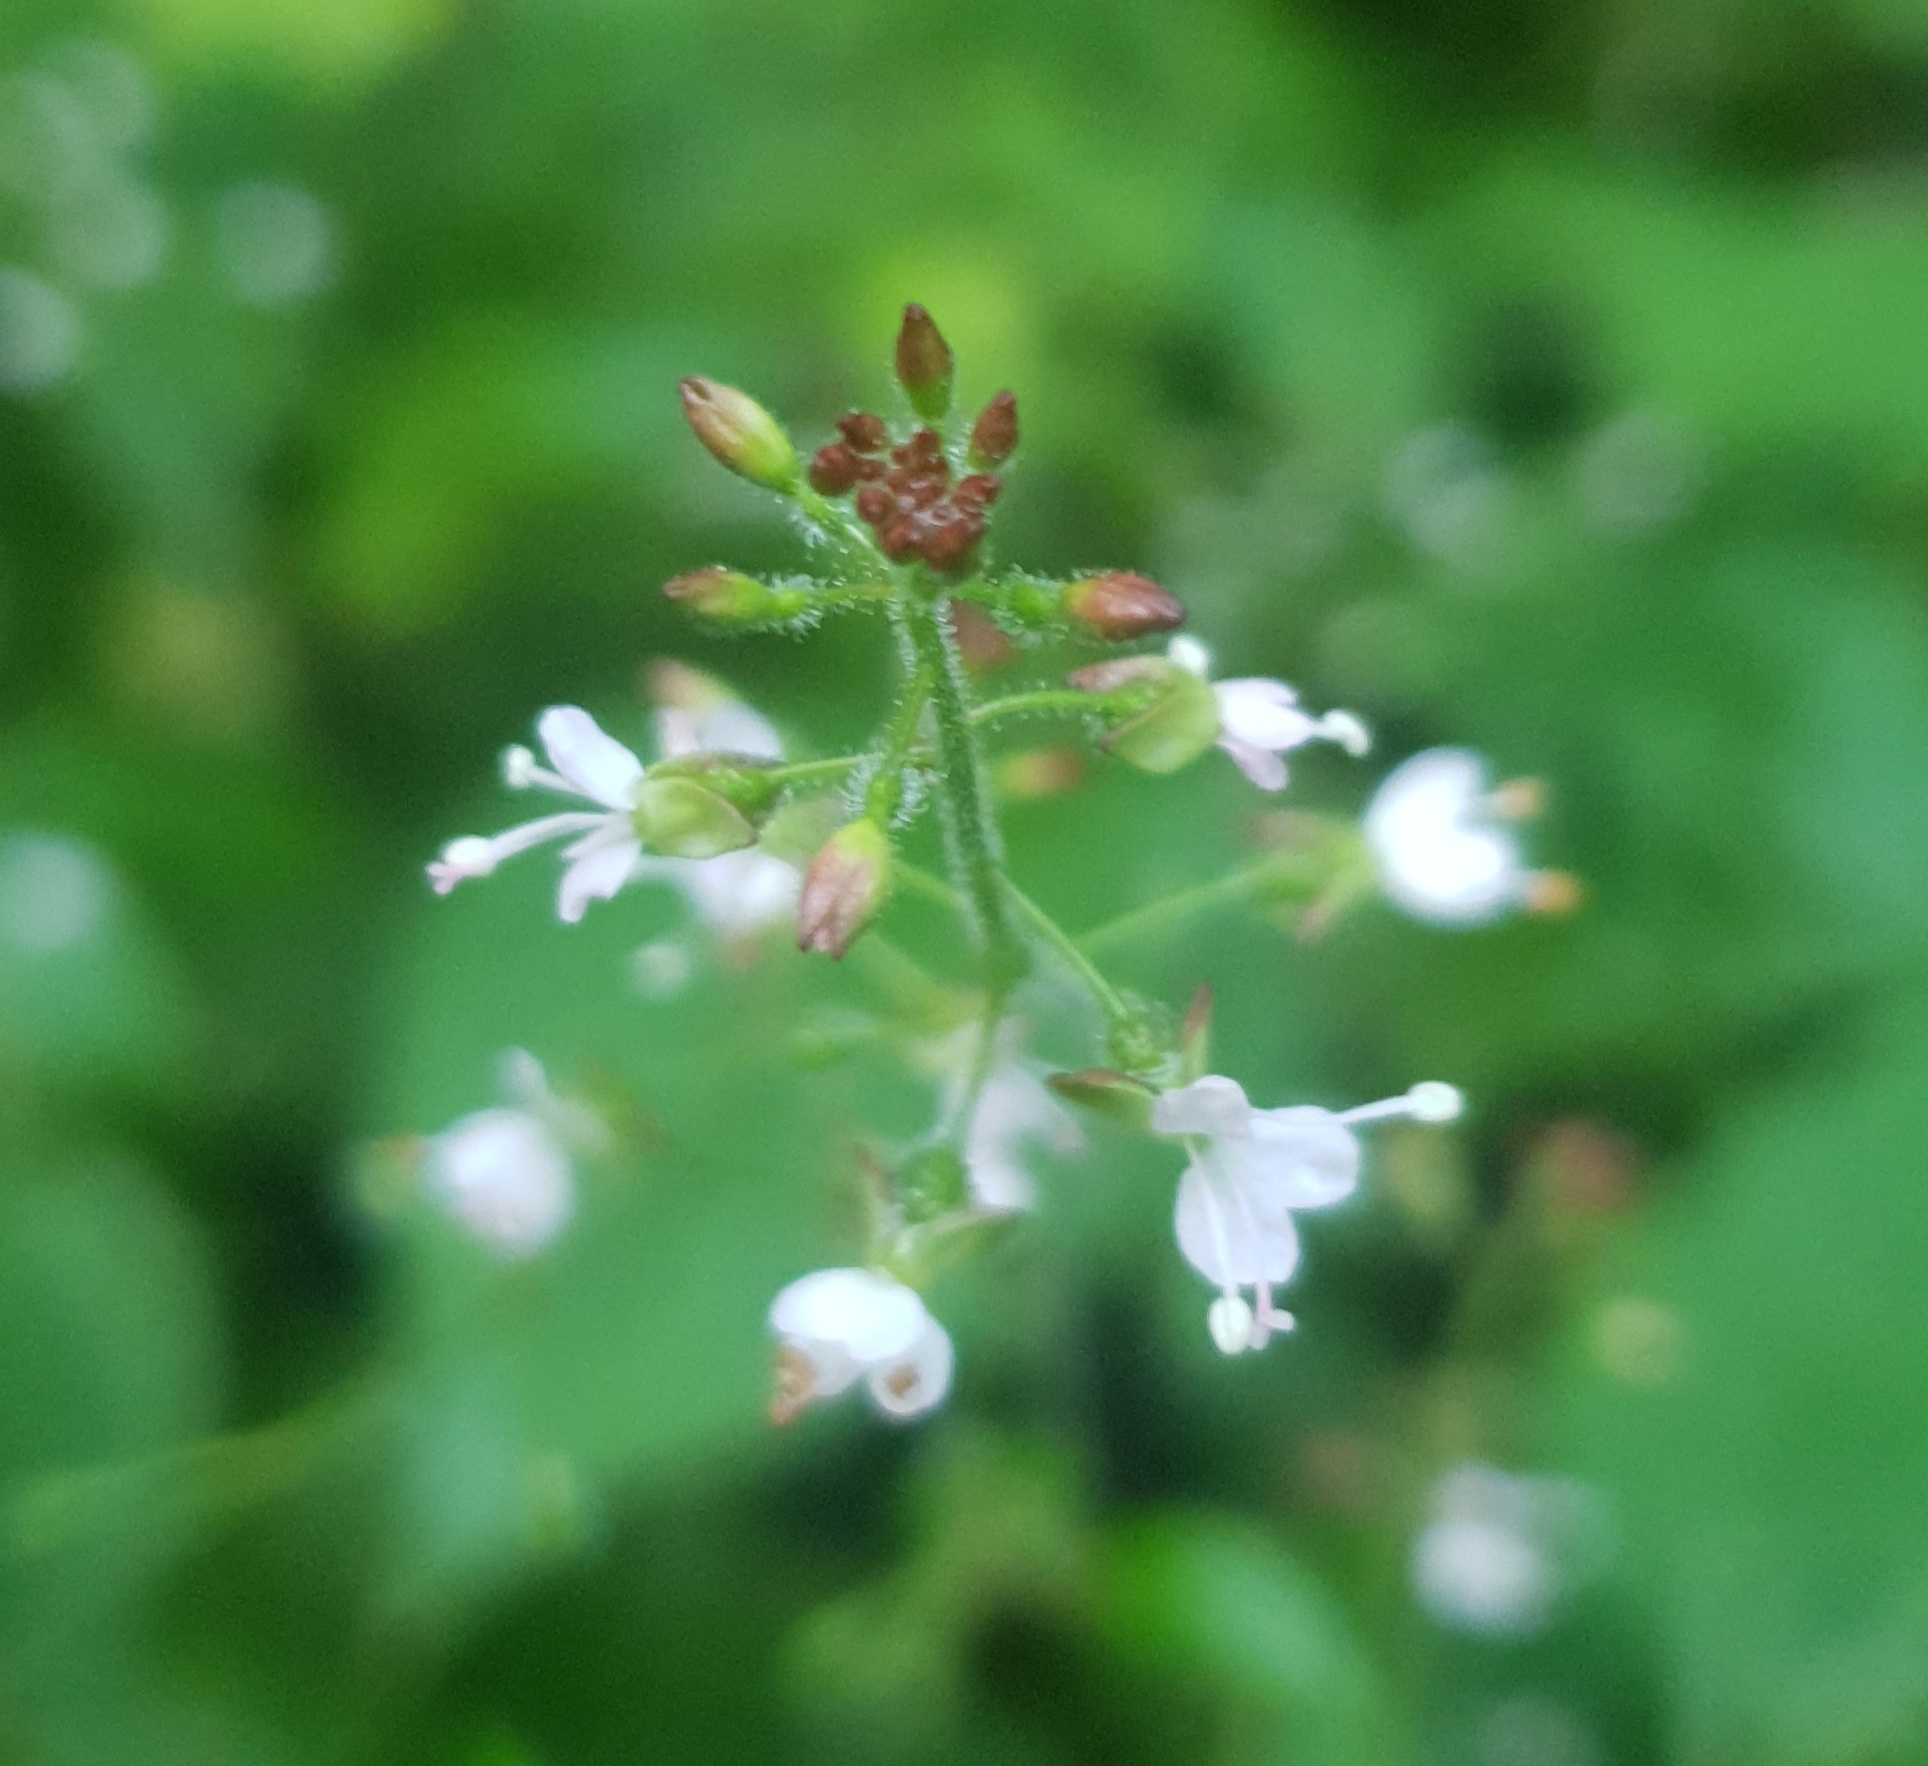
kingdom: Plantae
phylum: Tracheophyta
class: Magnoliopsida
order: Myrtales
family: Onagraceae
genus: Circaea
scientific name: Circaea lutetiana
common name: Enchanter's-nightshade
